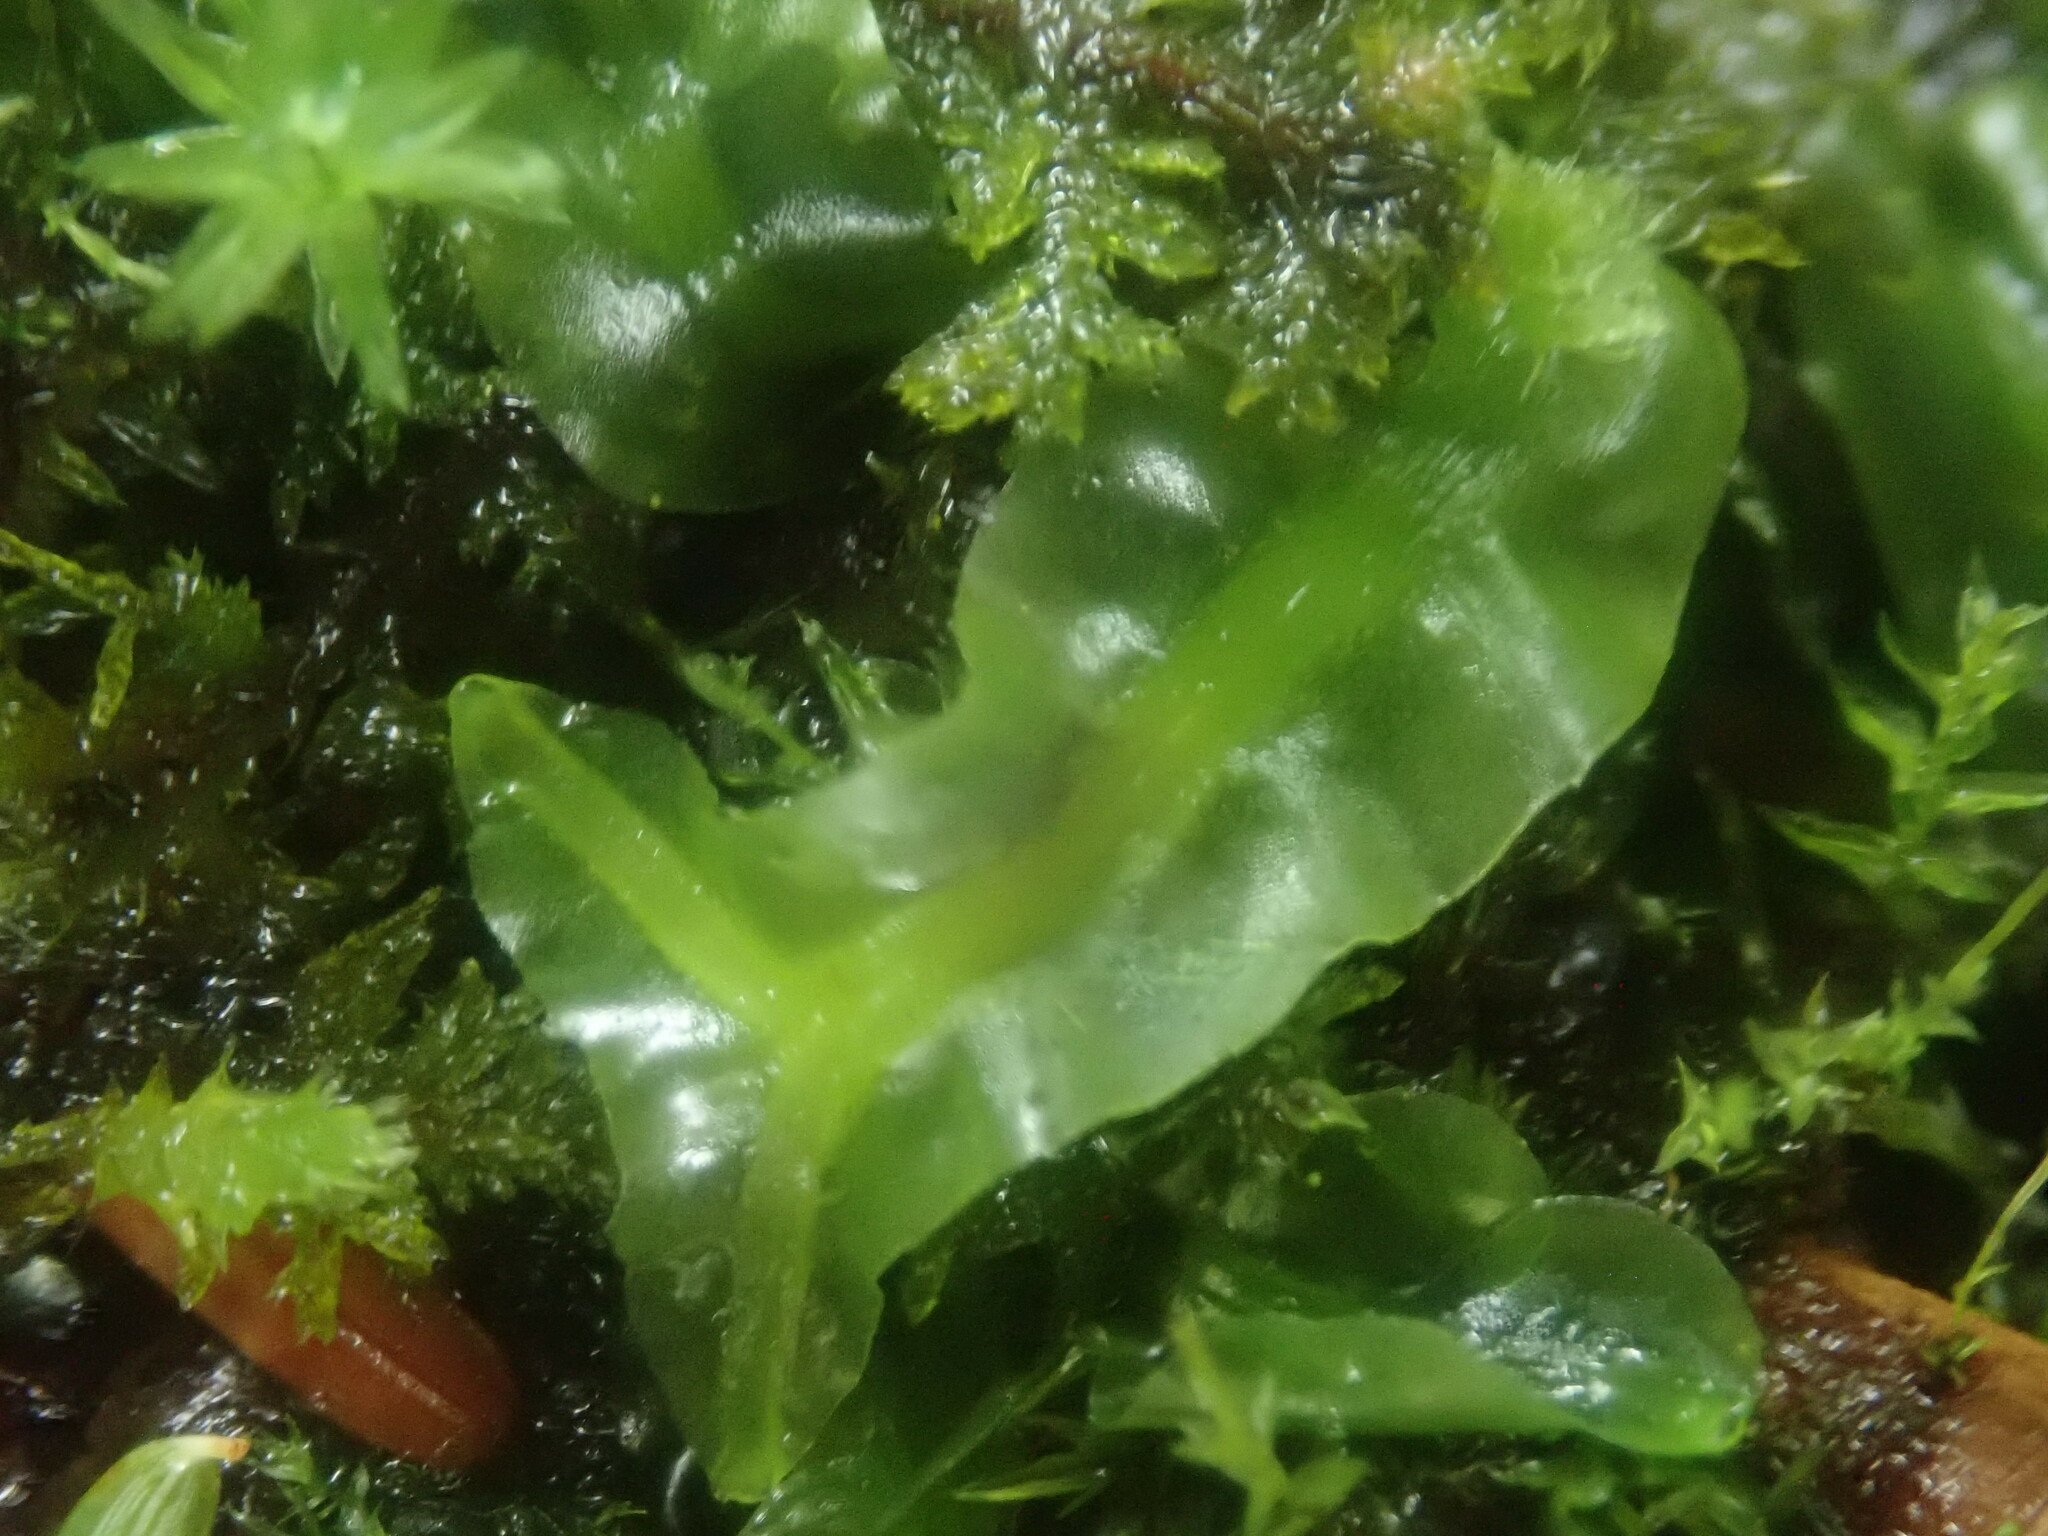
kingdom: Plantae
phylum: Marchantiophyta
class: Jungermanniopsida
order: Pallaviciniales
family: Pallaviciniaceae
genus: Pallavicinia
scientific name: Pallavicinia lyellii
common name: Veilwort
